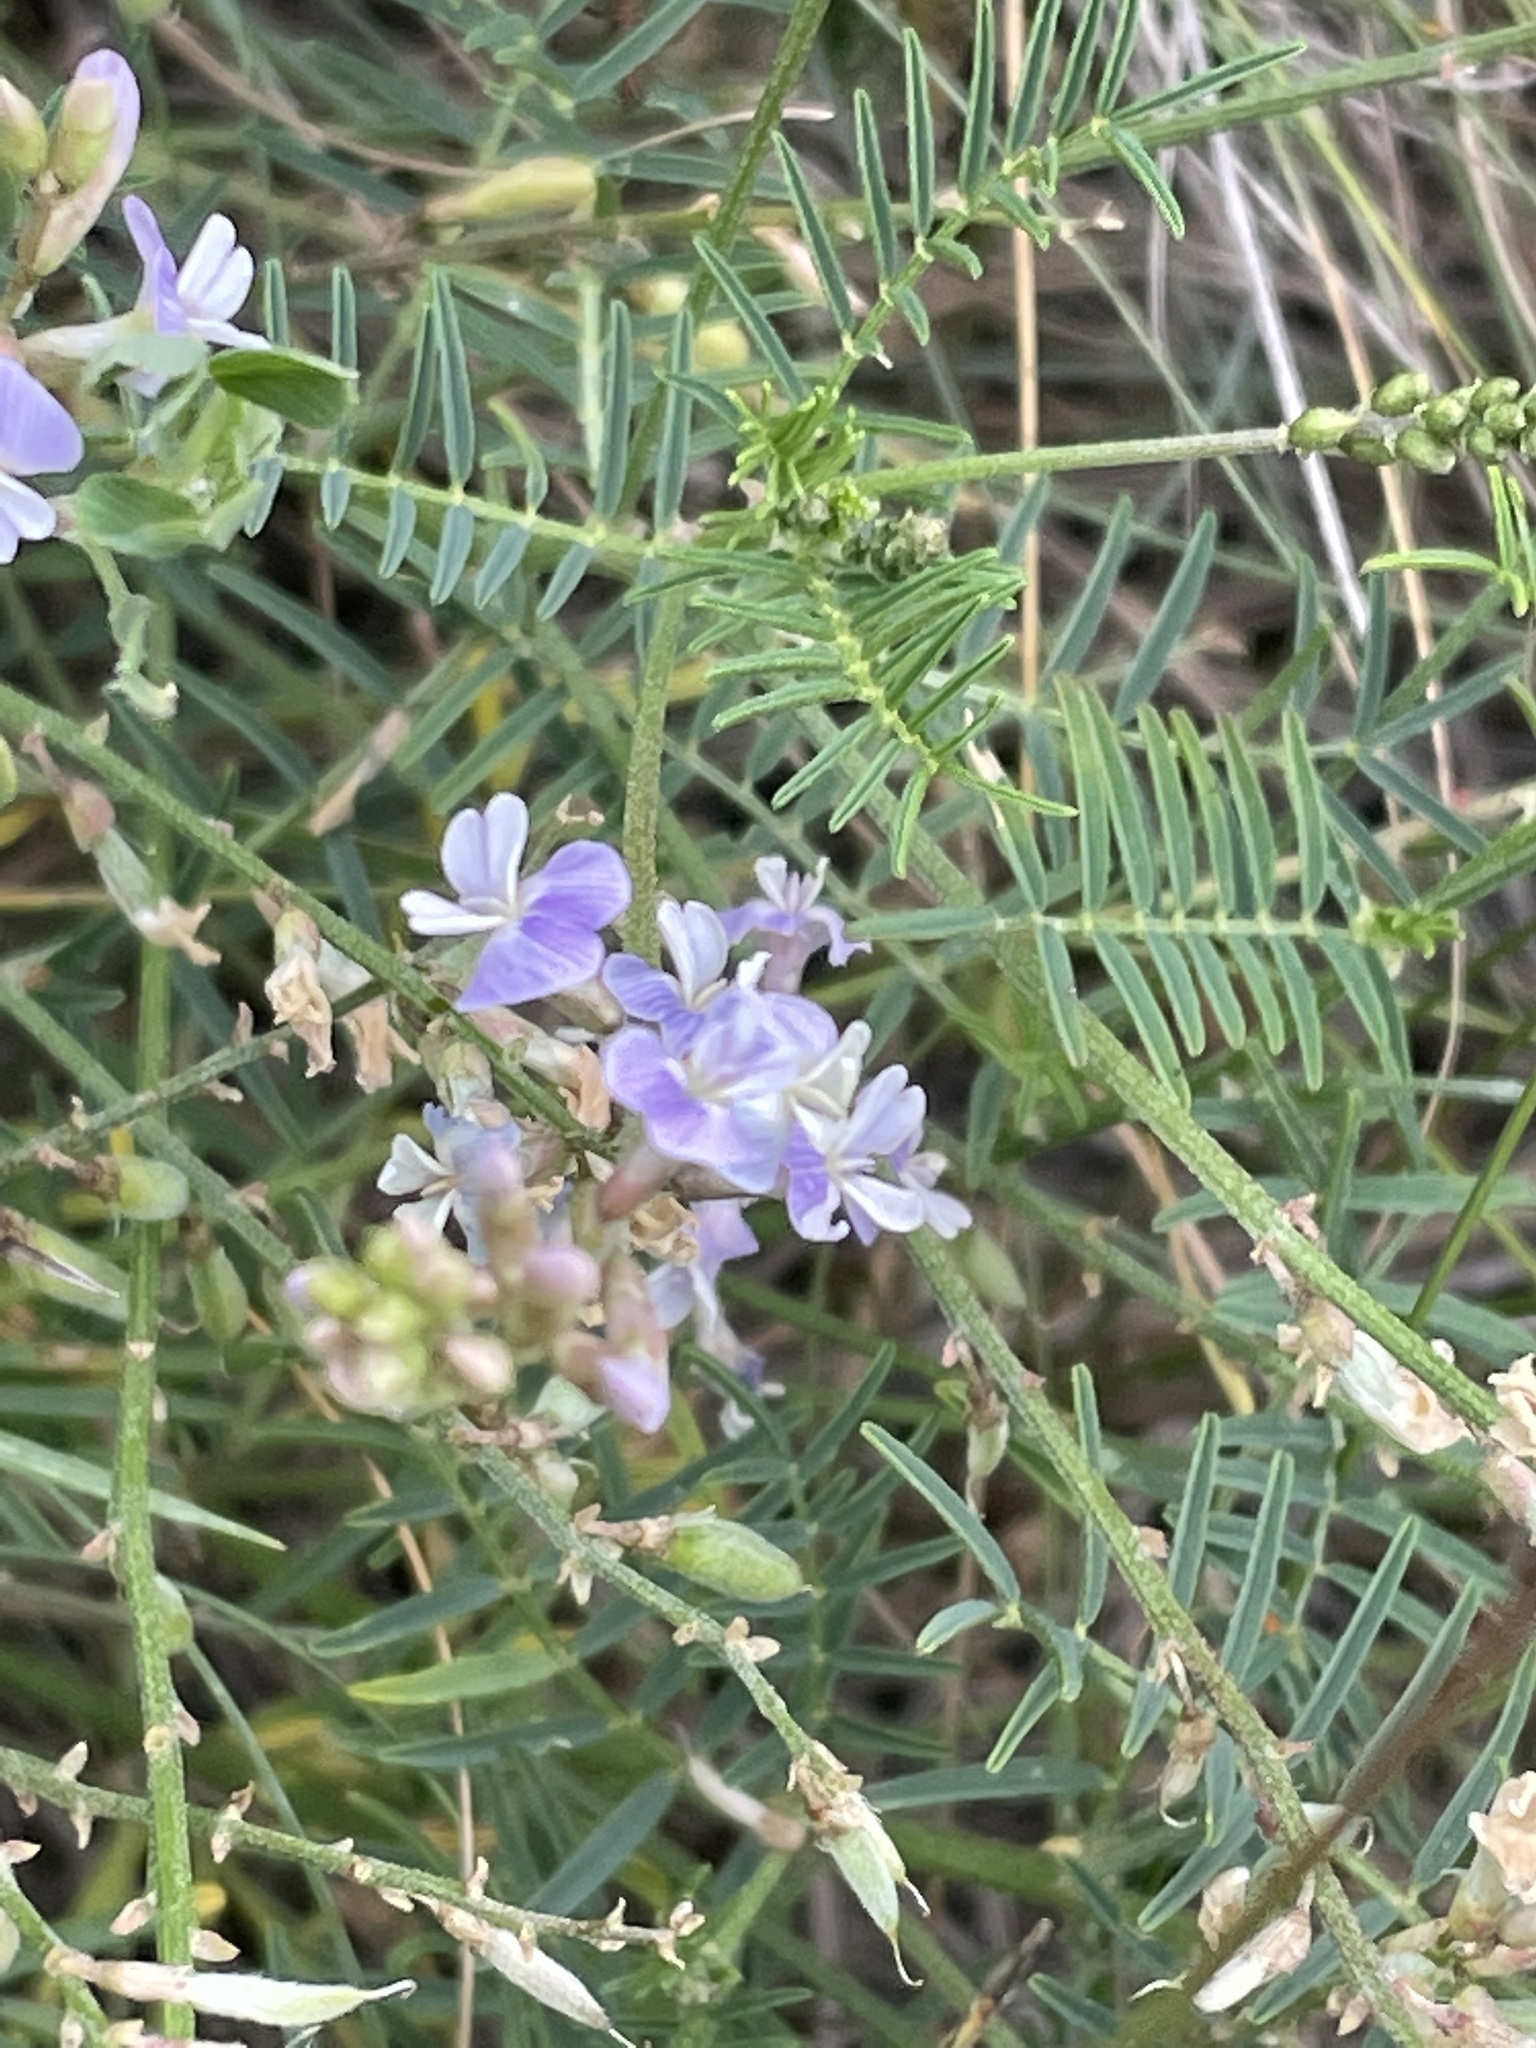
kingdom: Plantae
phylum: Tracheophyta
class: Magnoliopsida
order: Fabales
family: Fabaceae
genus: Astragalus
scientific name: Astragalus austriacus
